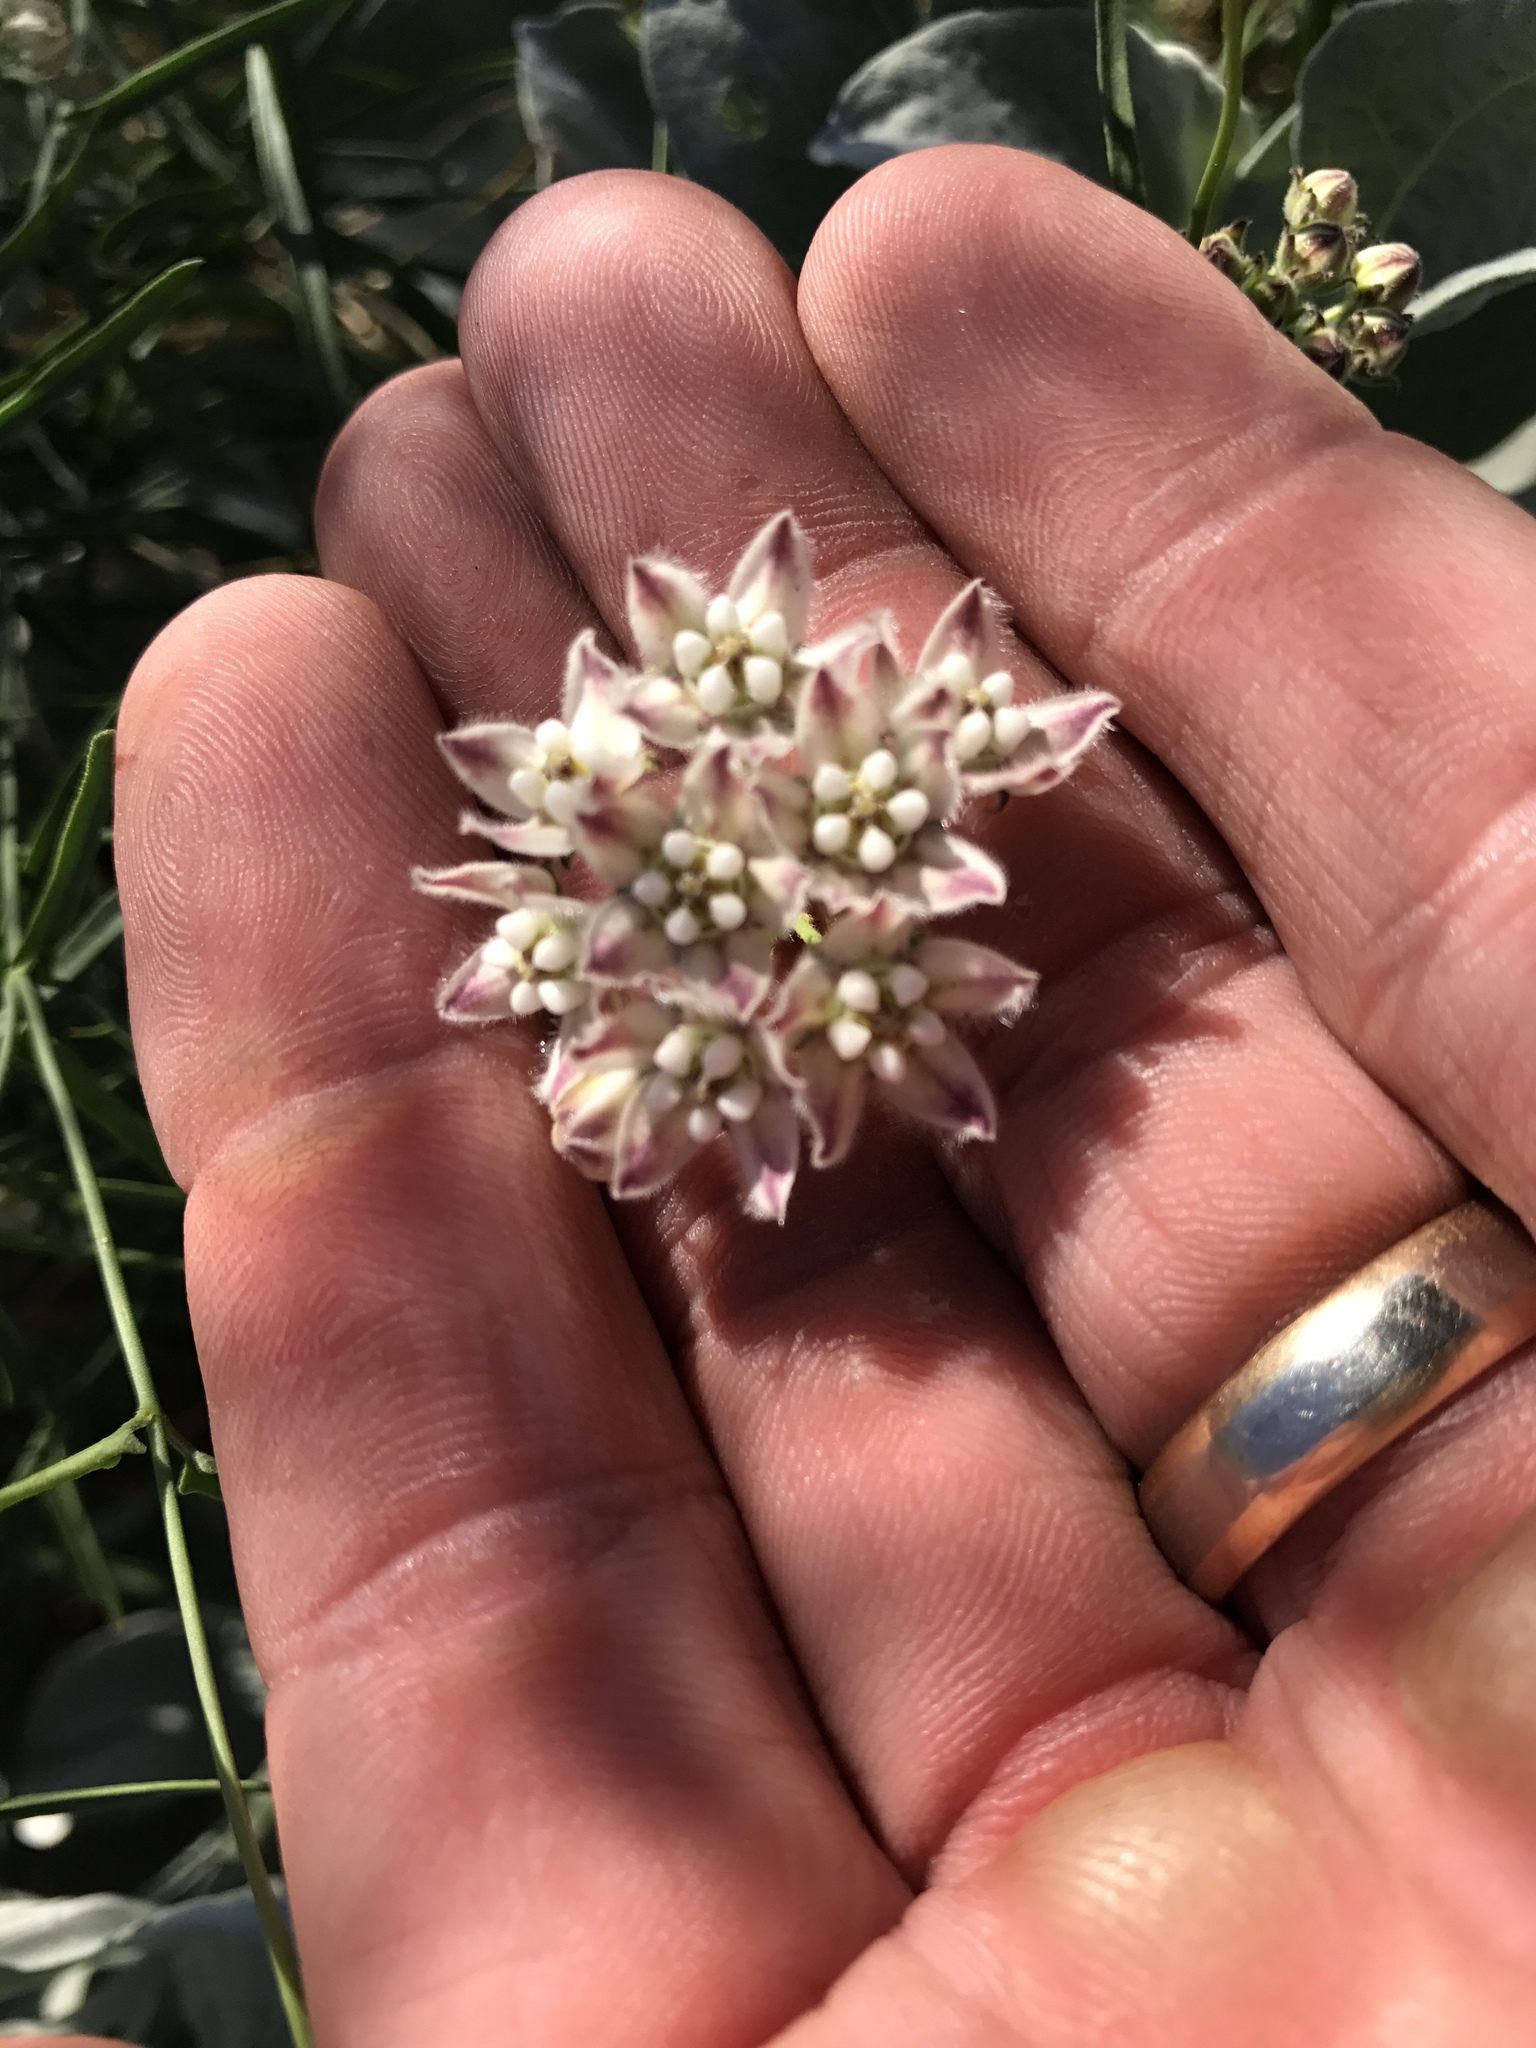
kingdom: Plantae
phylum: Tracheophyta
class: Magnoliopsida
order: Gentianales
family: Apocynaceae
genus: Funastrum
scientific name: Funastrum heterophyllum
